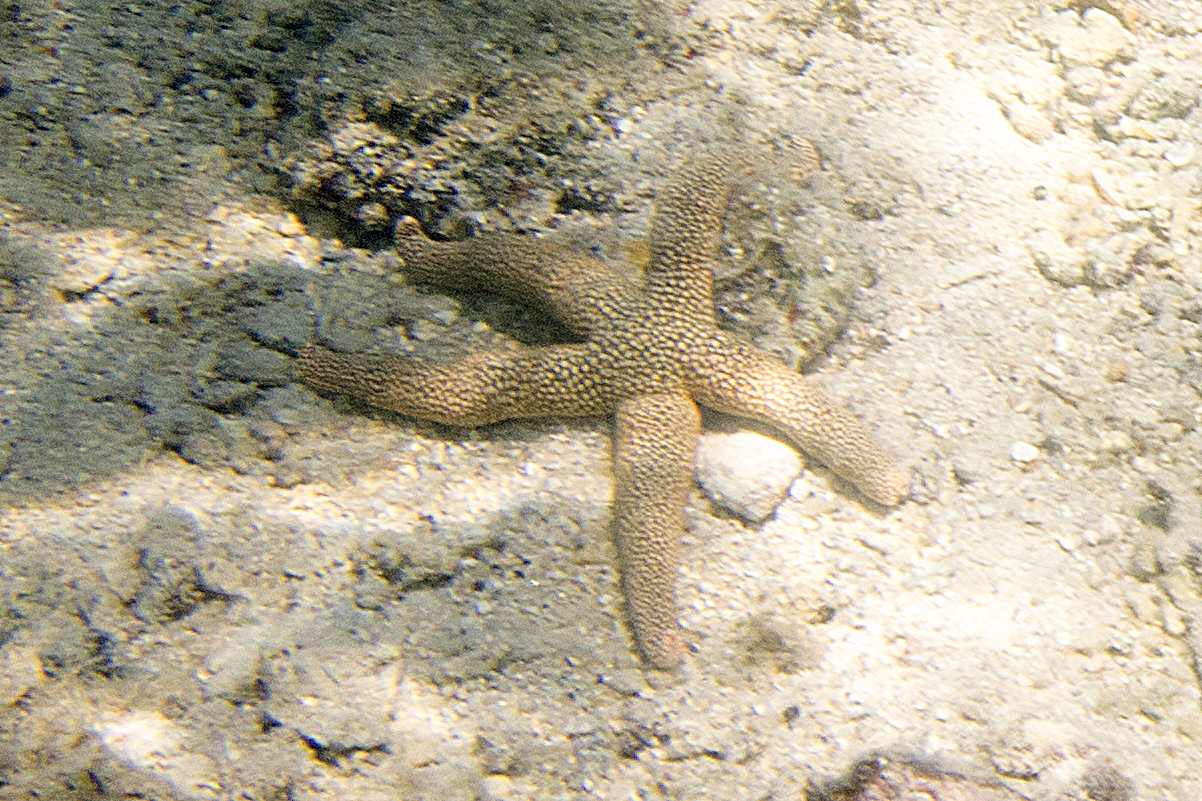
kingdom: Animalia
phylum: Echinodermata
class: Asteroidea
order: Valvatida
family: Ophidiasteridae
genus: Nardoa
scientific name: Nardoa novaecaledoniae
